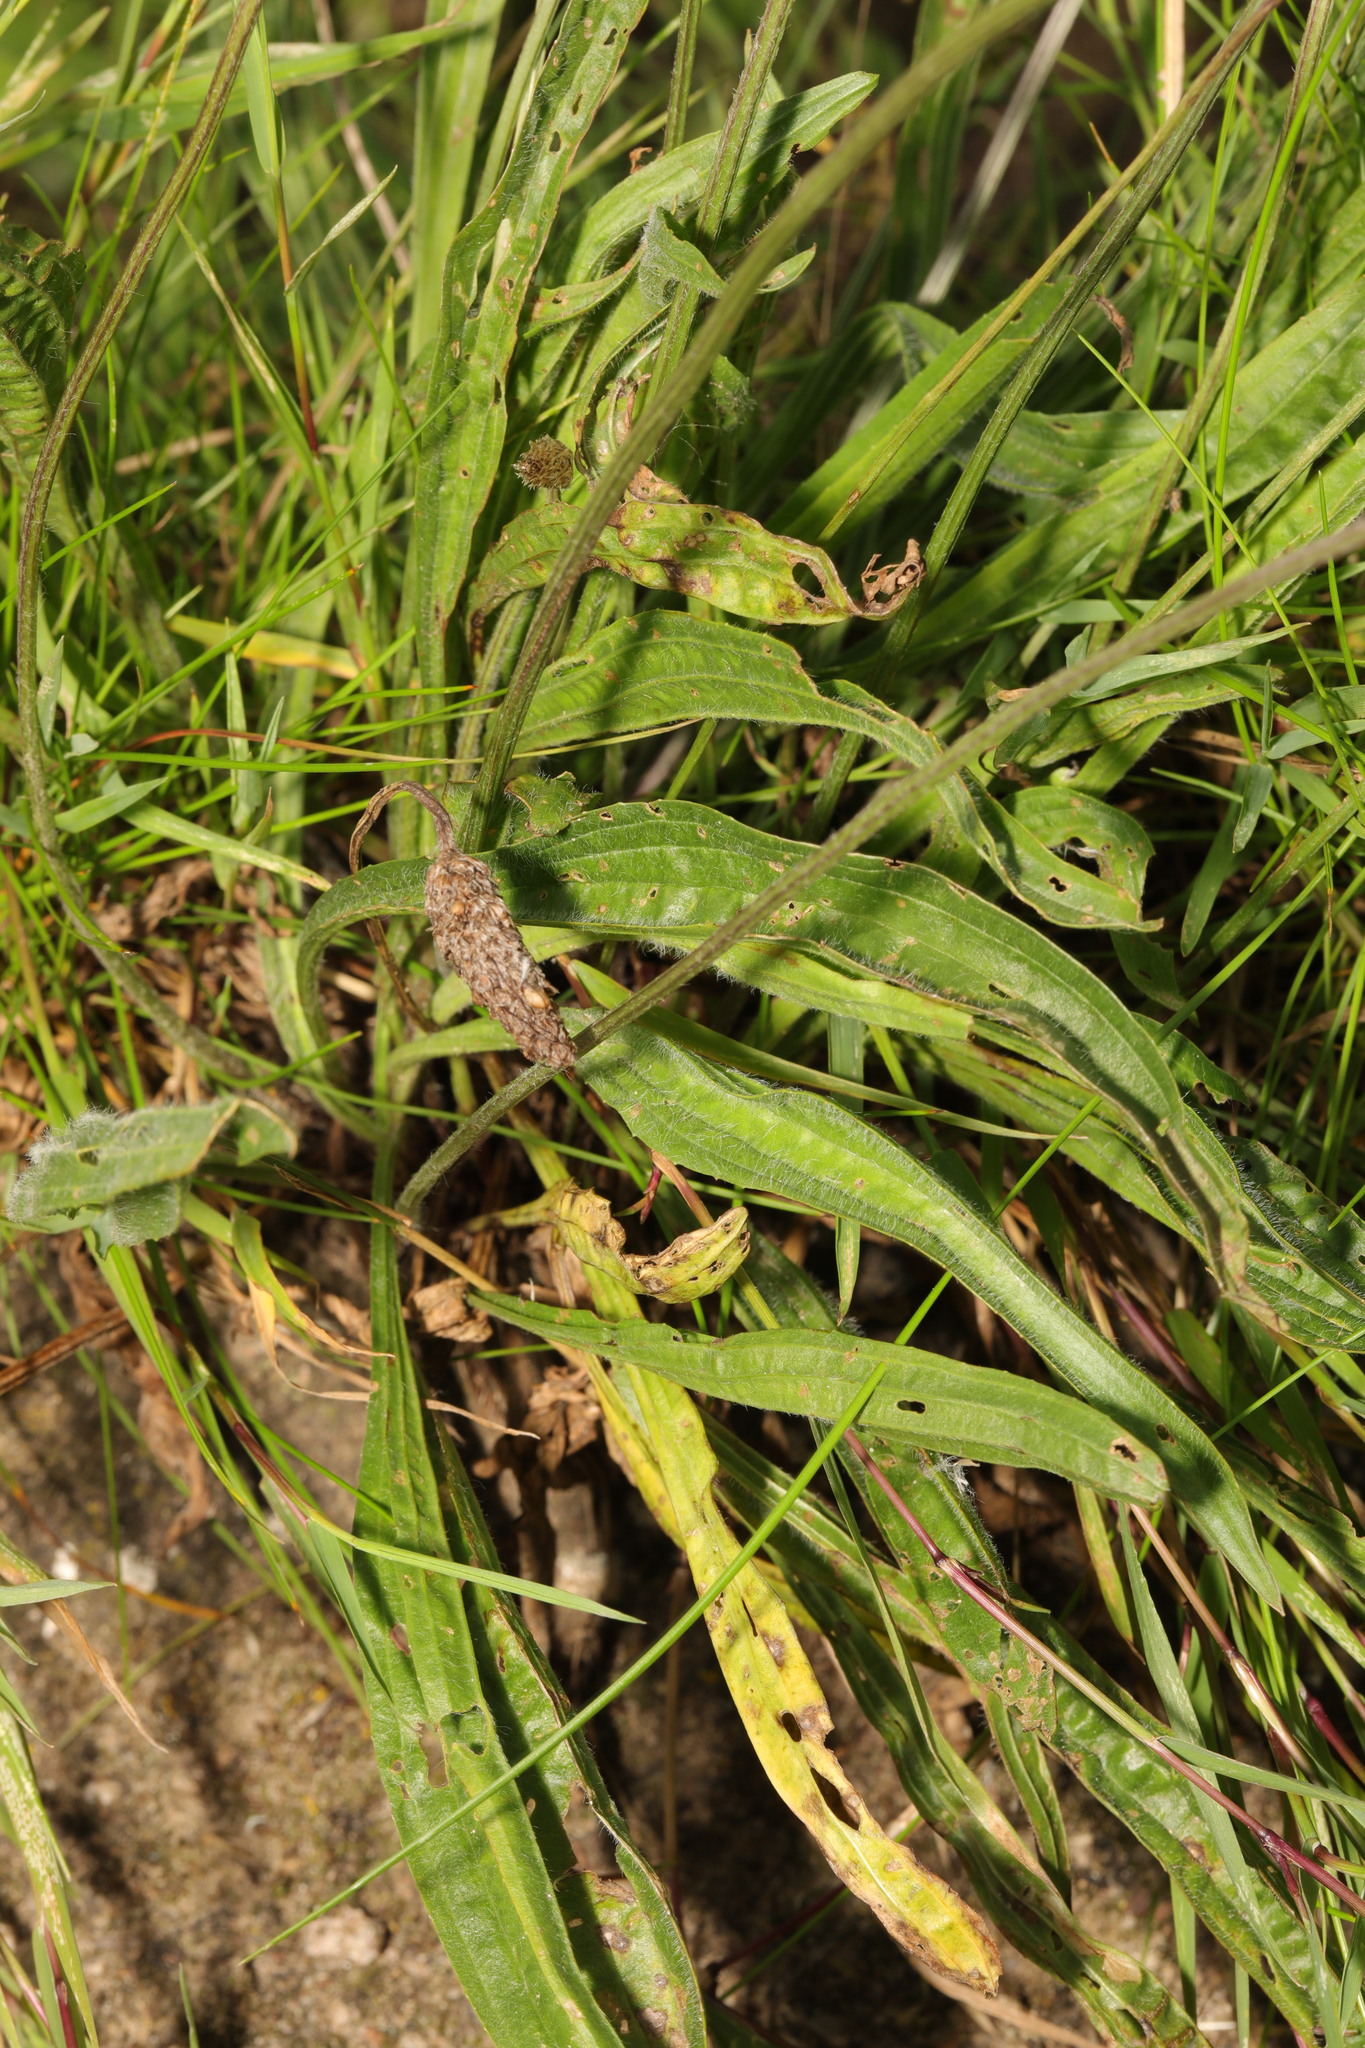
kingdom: Plantae
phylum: Tracheophyta
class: Magnoliopsida
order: Lamiales
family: Plantaginaceae
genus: Plantago
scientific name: Plantago lanceolata
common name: Ribwort plantain
